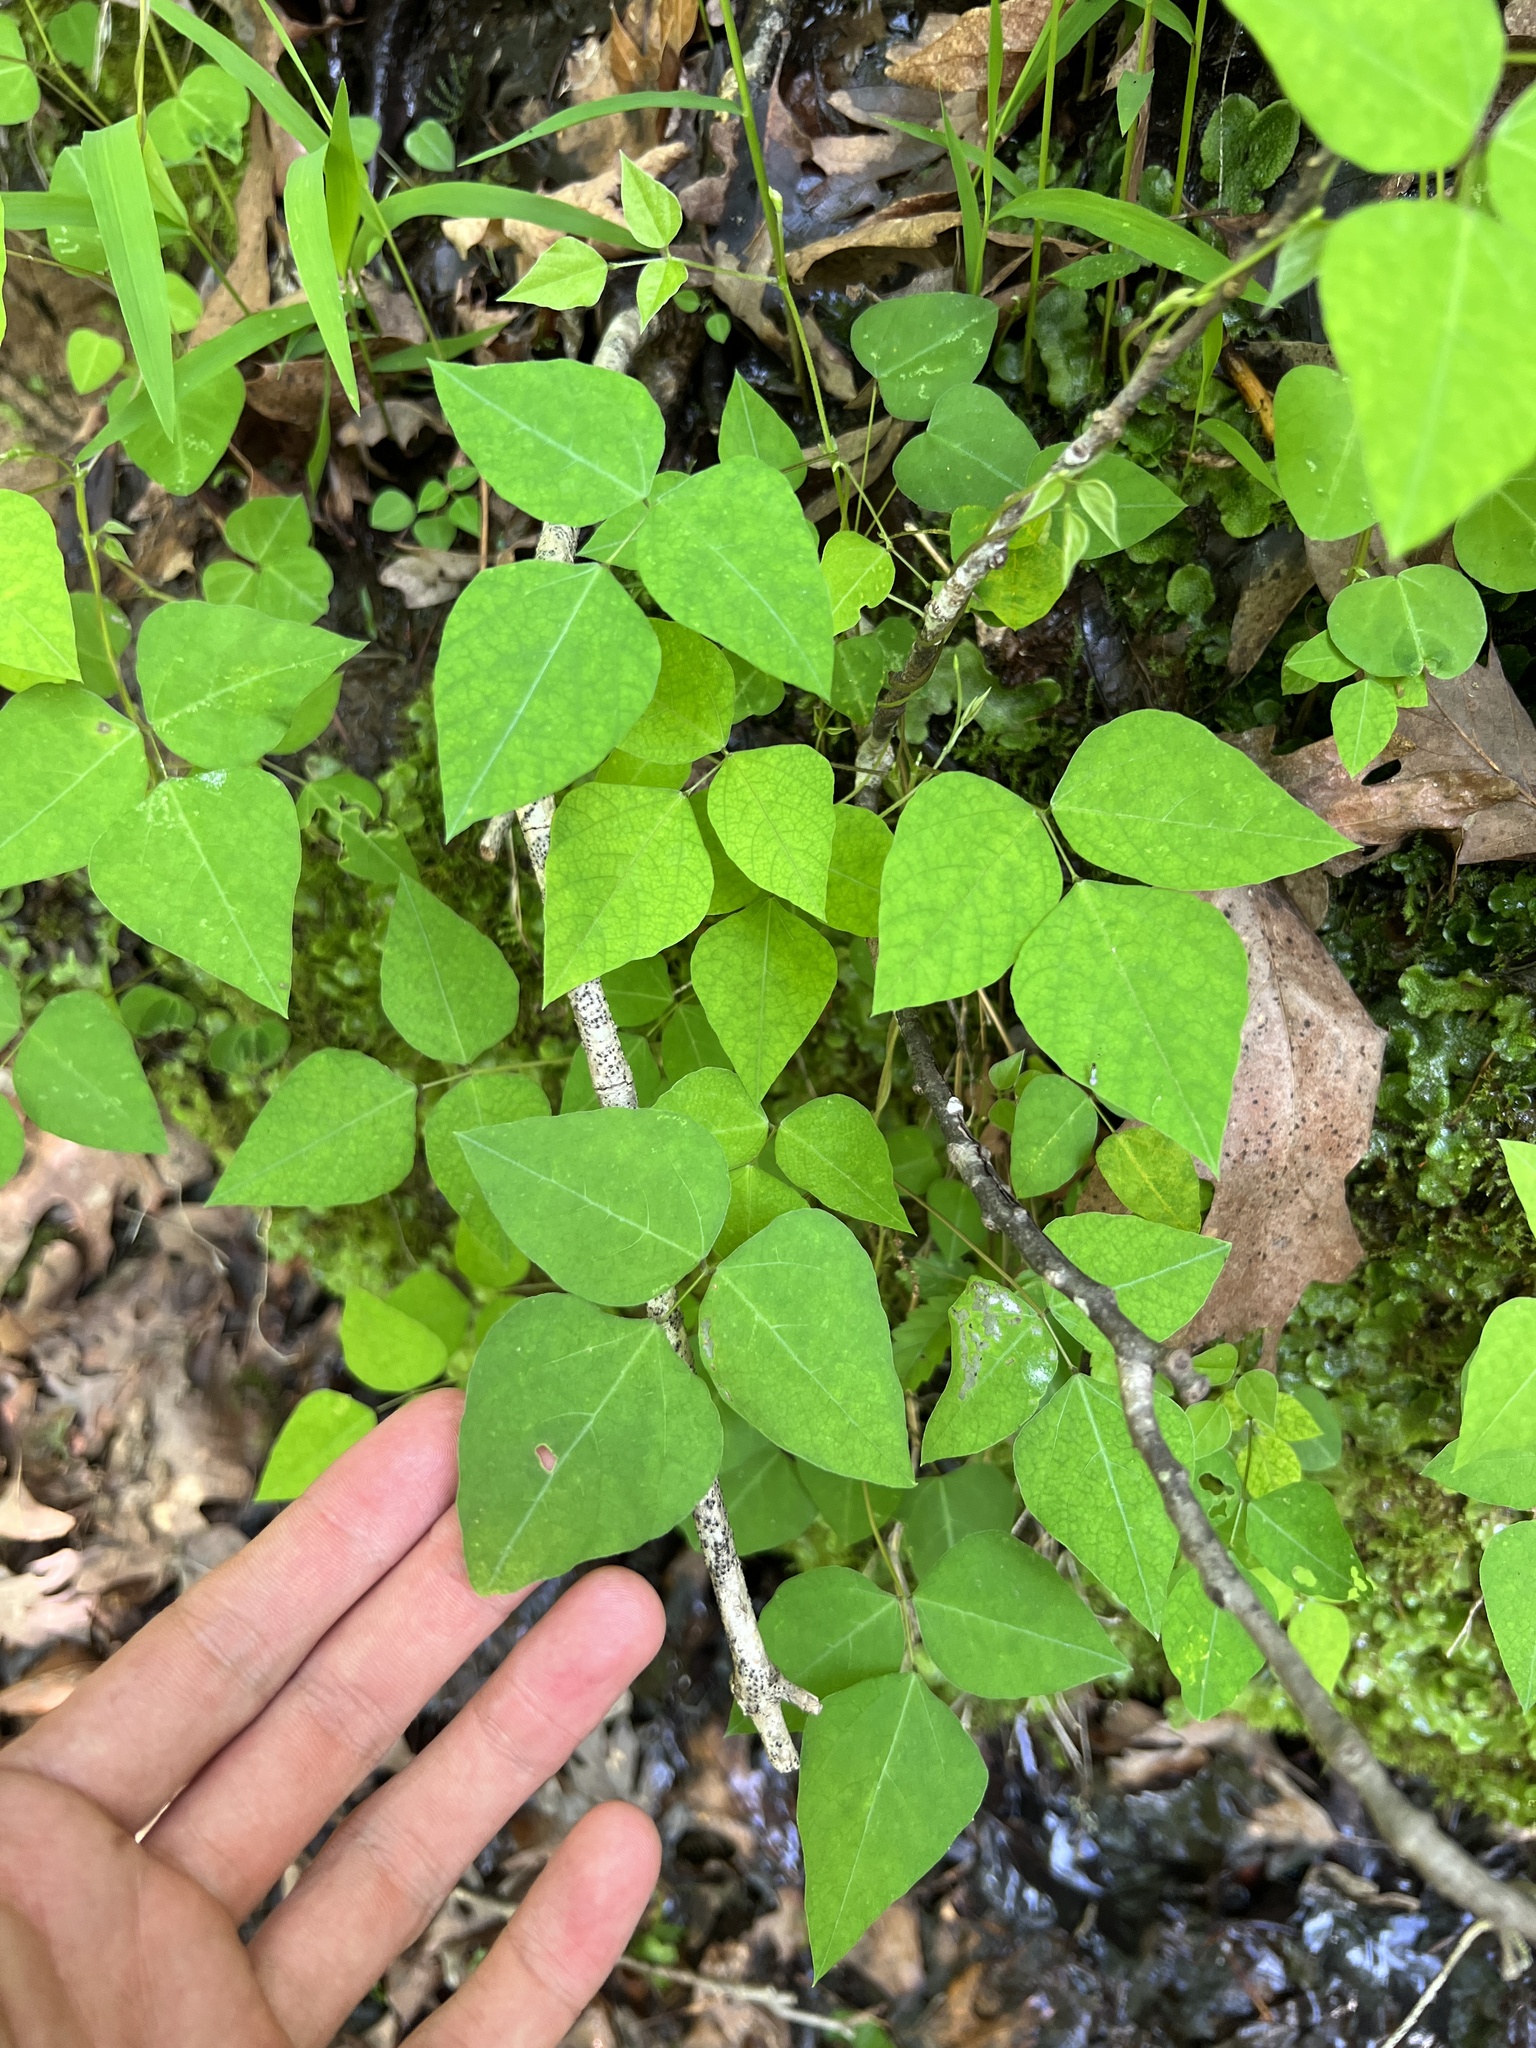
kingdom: Plantae
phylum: Tracheophyta
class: Magnoliopsida
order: Fabales
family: Fabaceae
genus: Amphicarpaea
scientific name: Amphicarpaea bracteata
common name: American hog peanut
